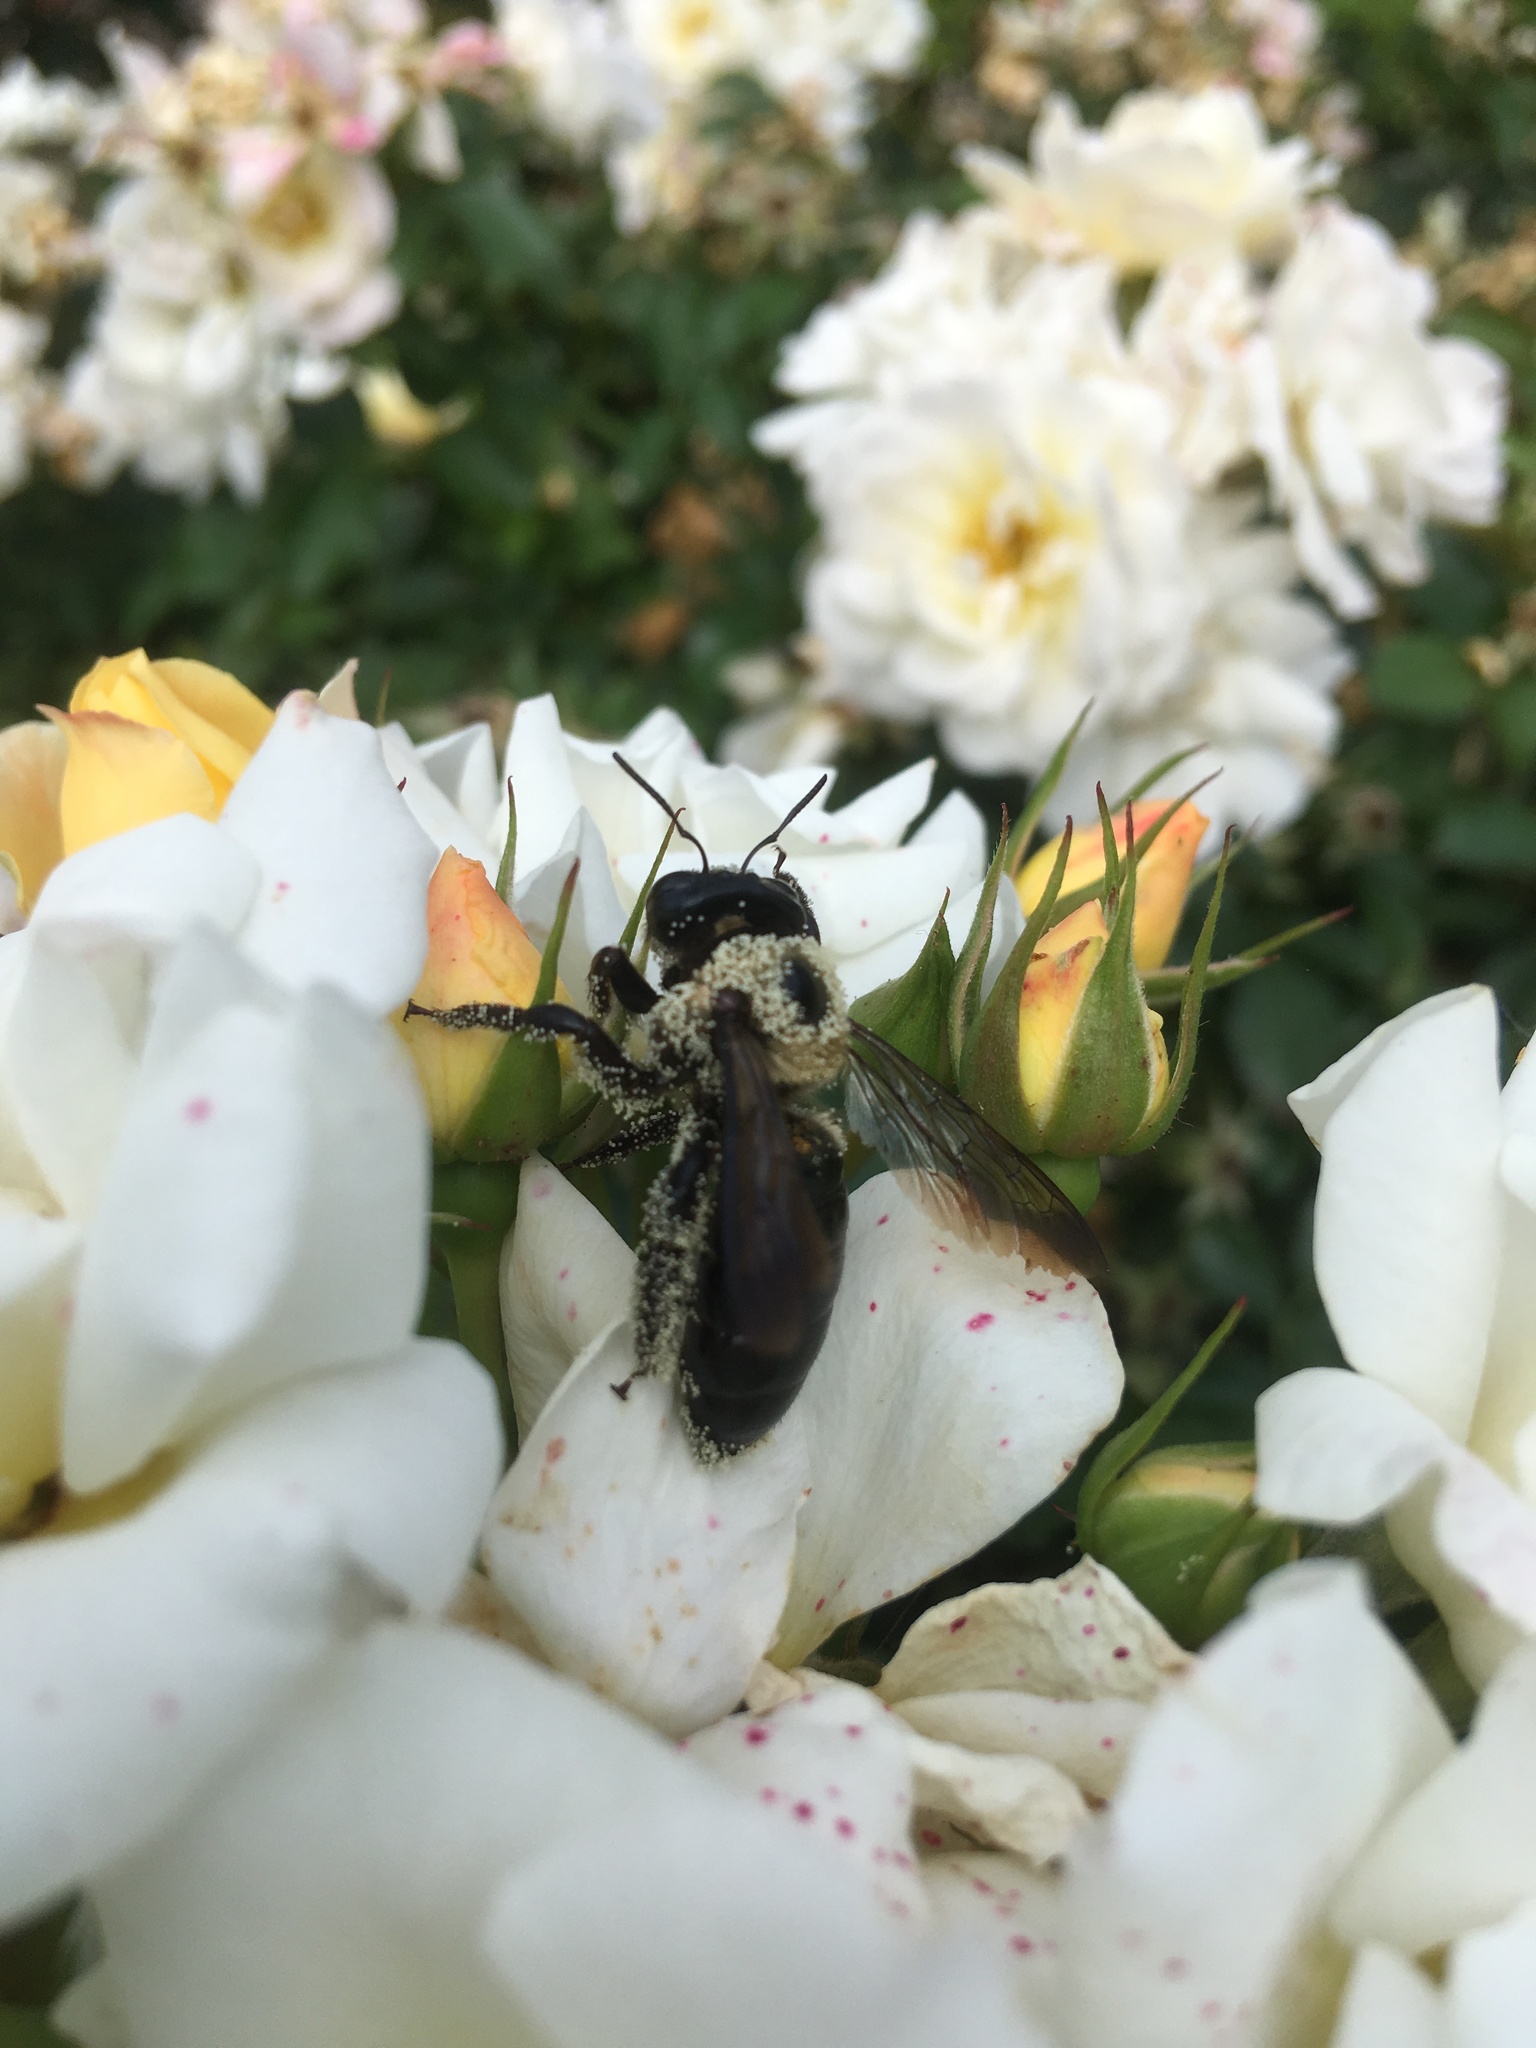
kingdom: Animalia
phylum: Arthropoda
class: Insecta
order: Hymenoptera
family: Apidae
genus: Xylocopa
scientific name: Xylocopa virginica
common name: Carpenter bee
